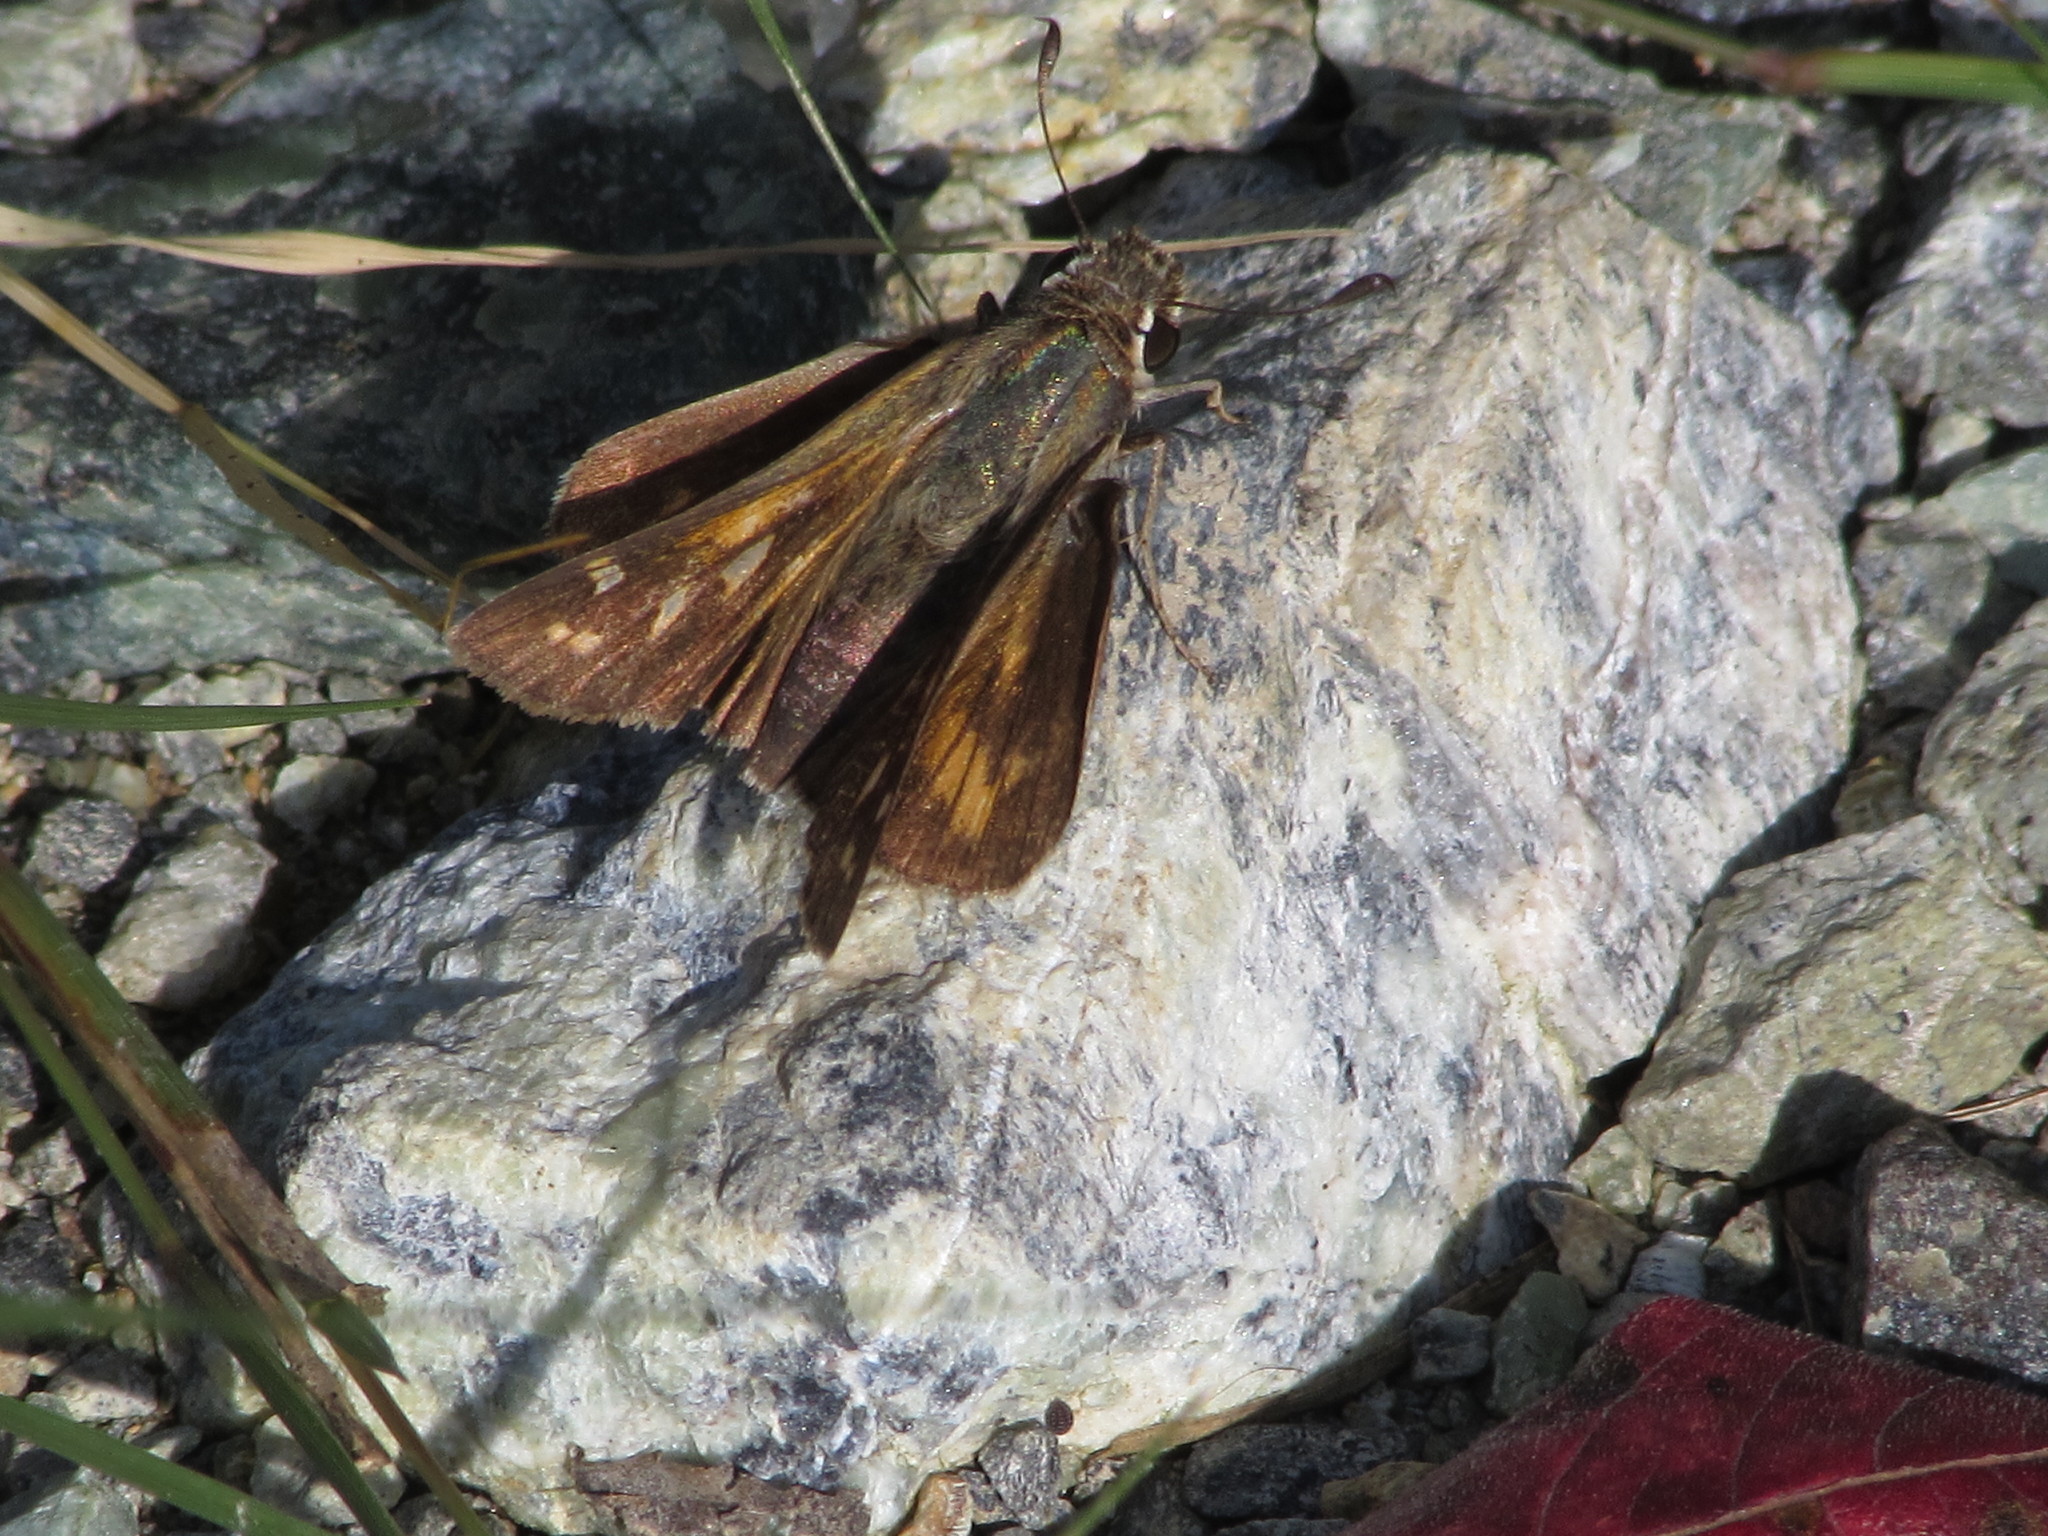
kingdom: Animalia
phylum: Arthropoda
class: Insecta
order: Lepidoptera
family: Hesperiidae
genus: Atalopedes
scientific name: Atalopedes
